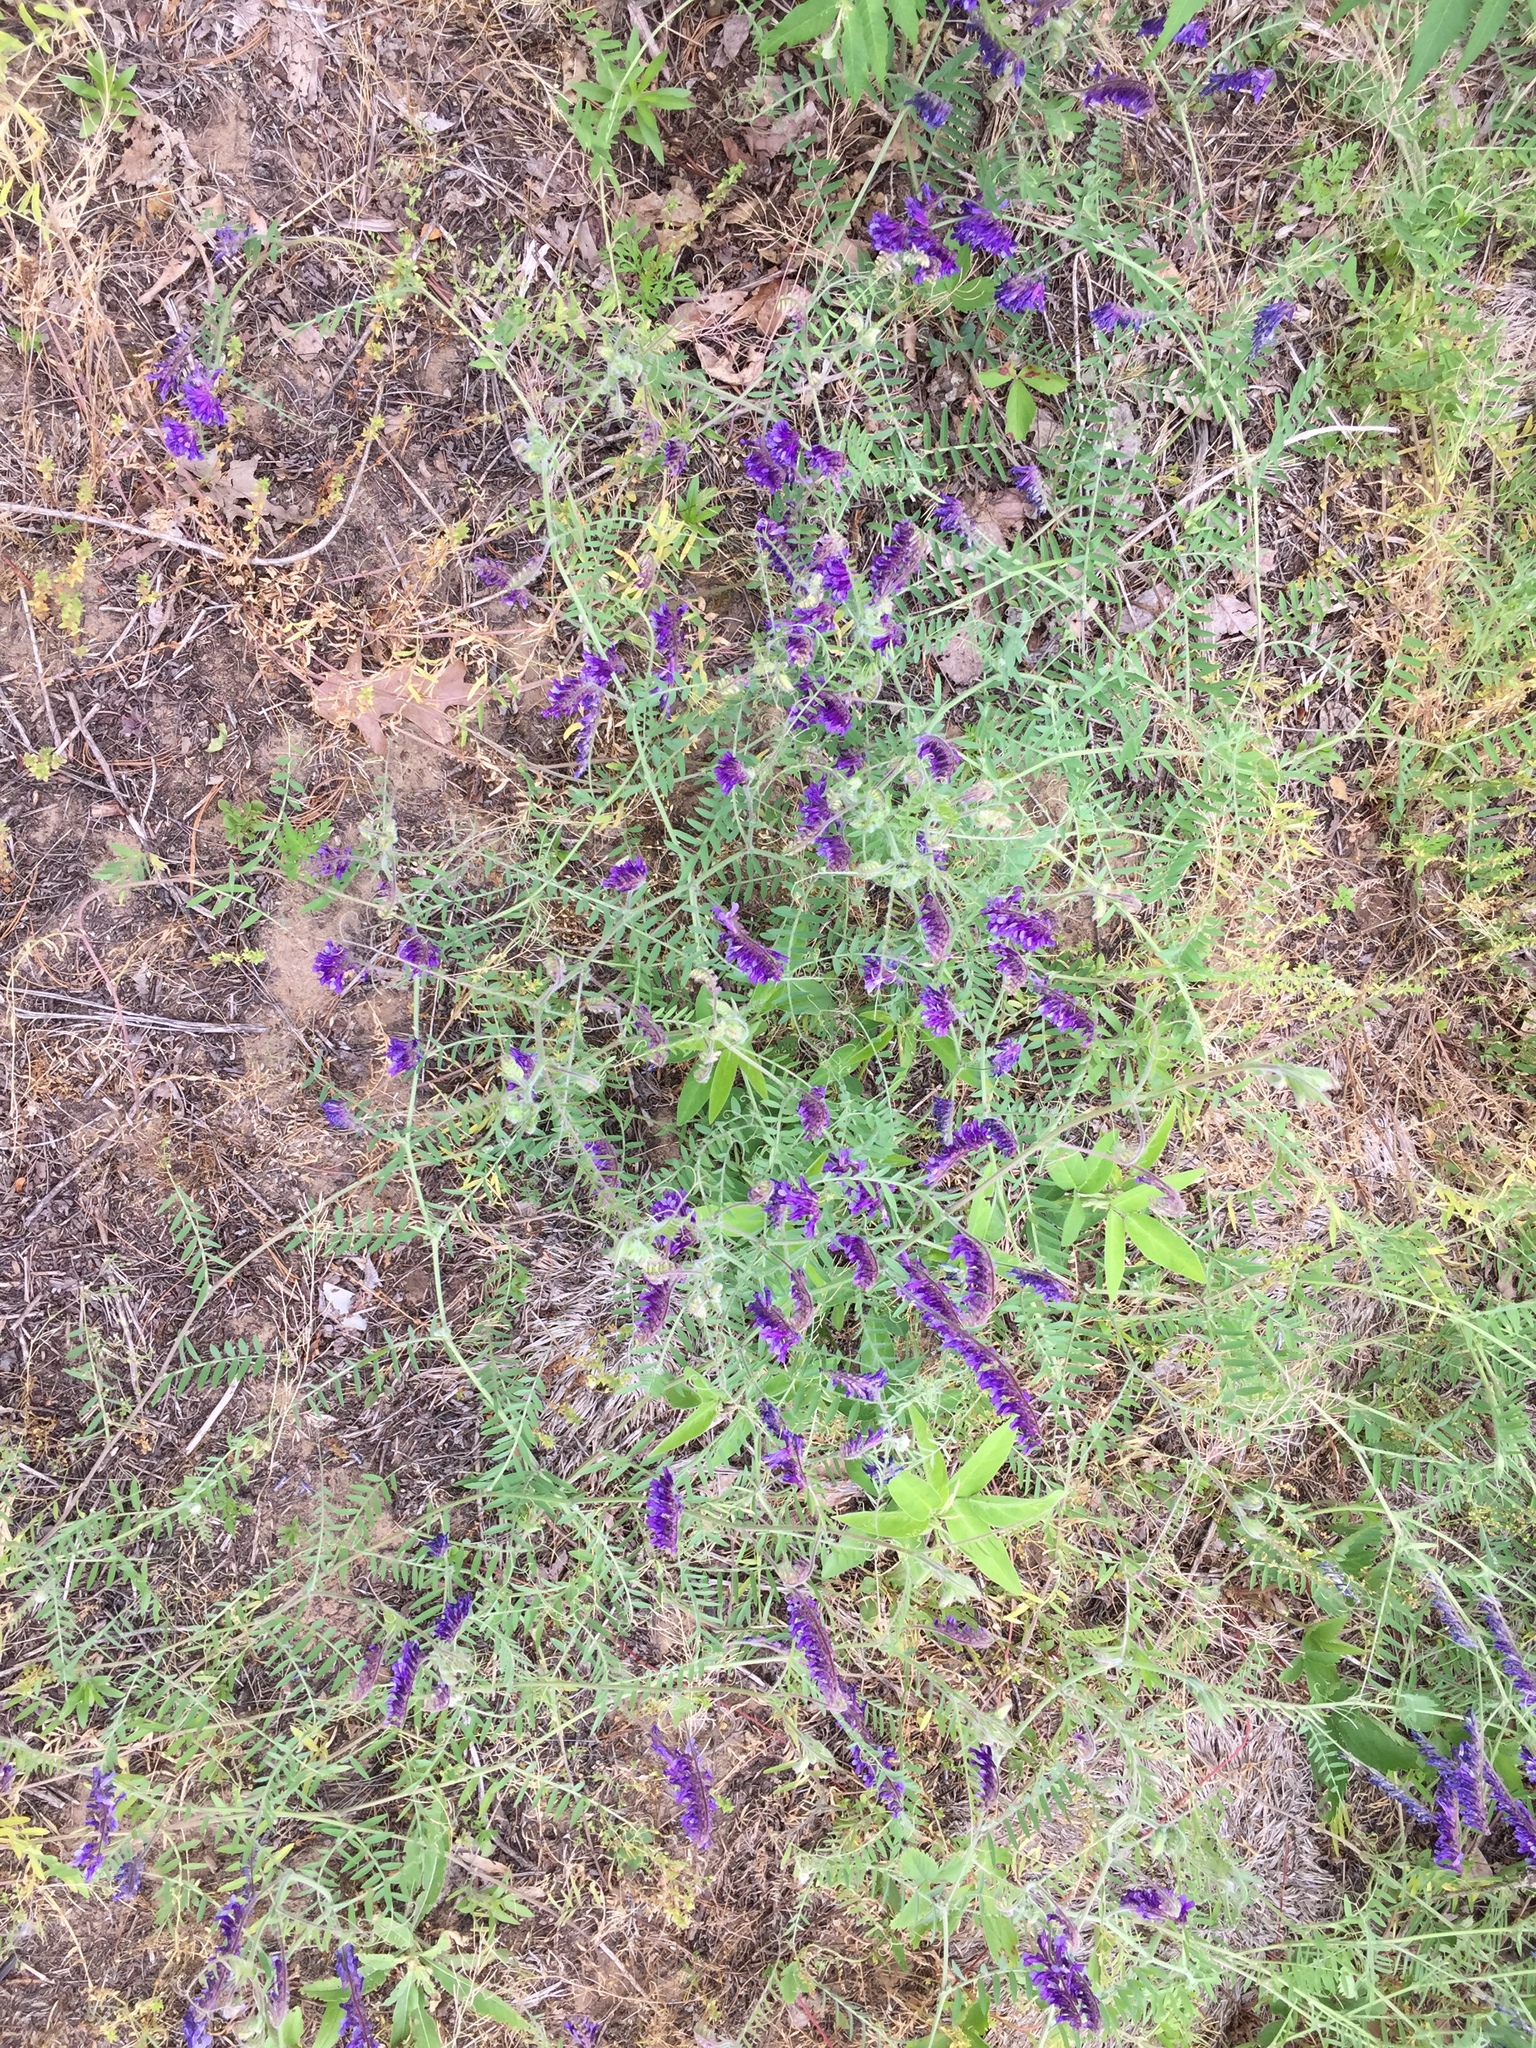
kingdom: Plantae
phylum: Tracheophyta
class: Magnoliopsida
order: Fabales
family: Fabaceae
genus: Vicia
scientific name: Vicia villosa
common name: Fodder vetch
